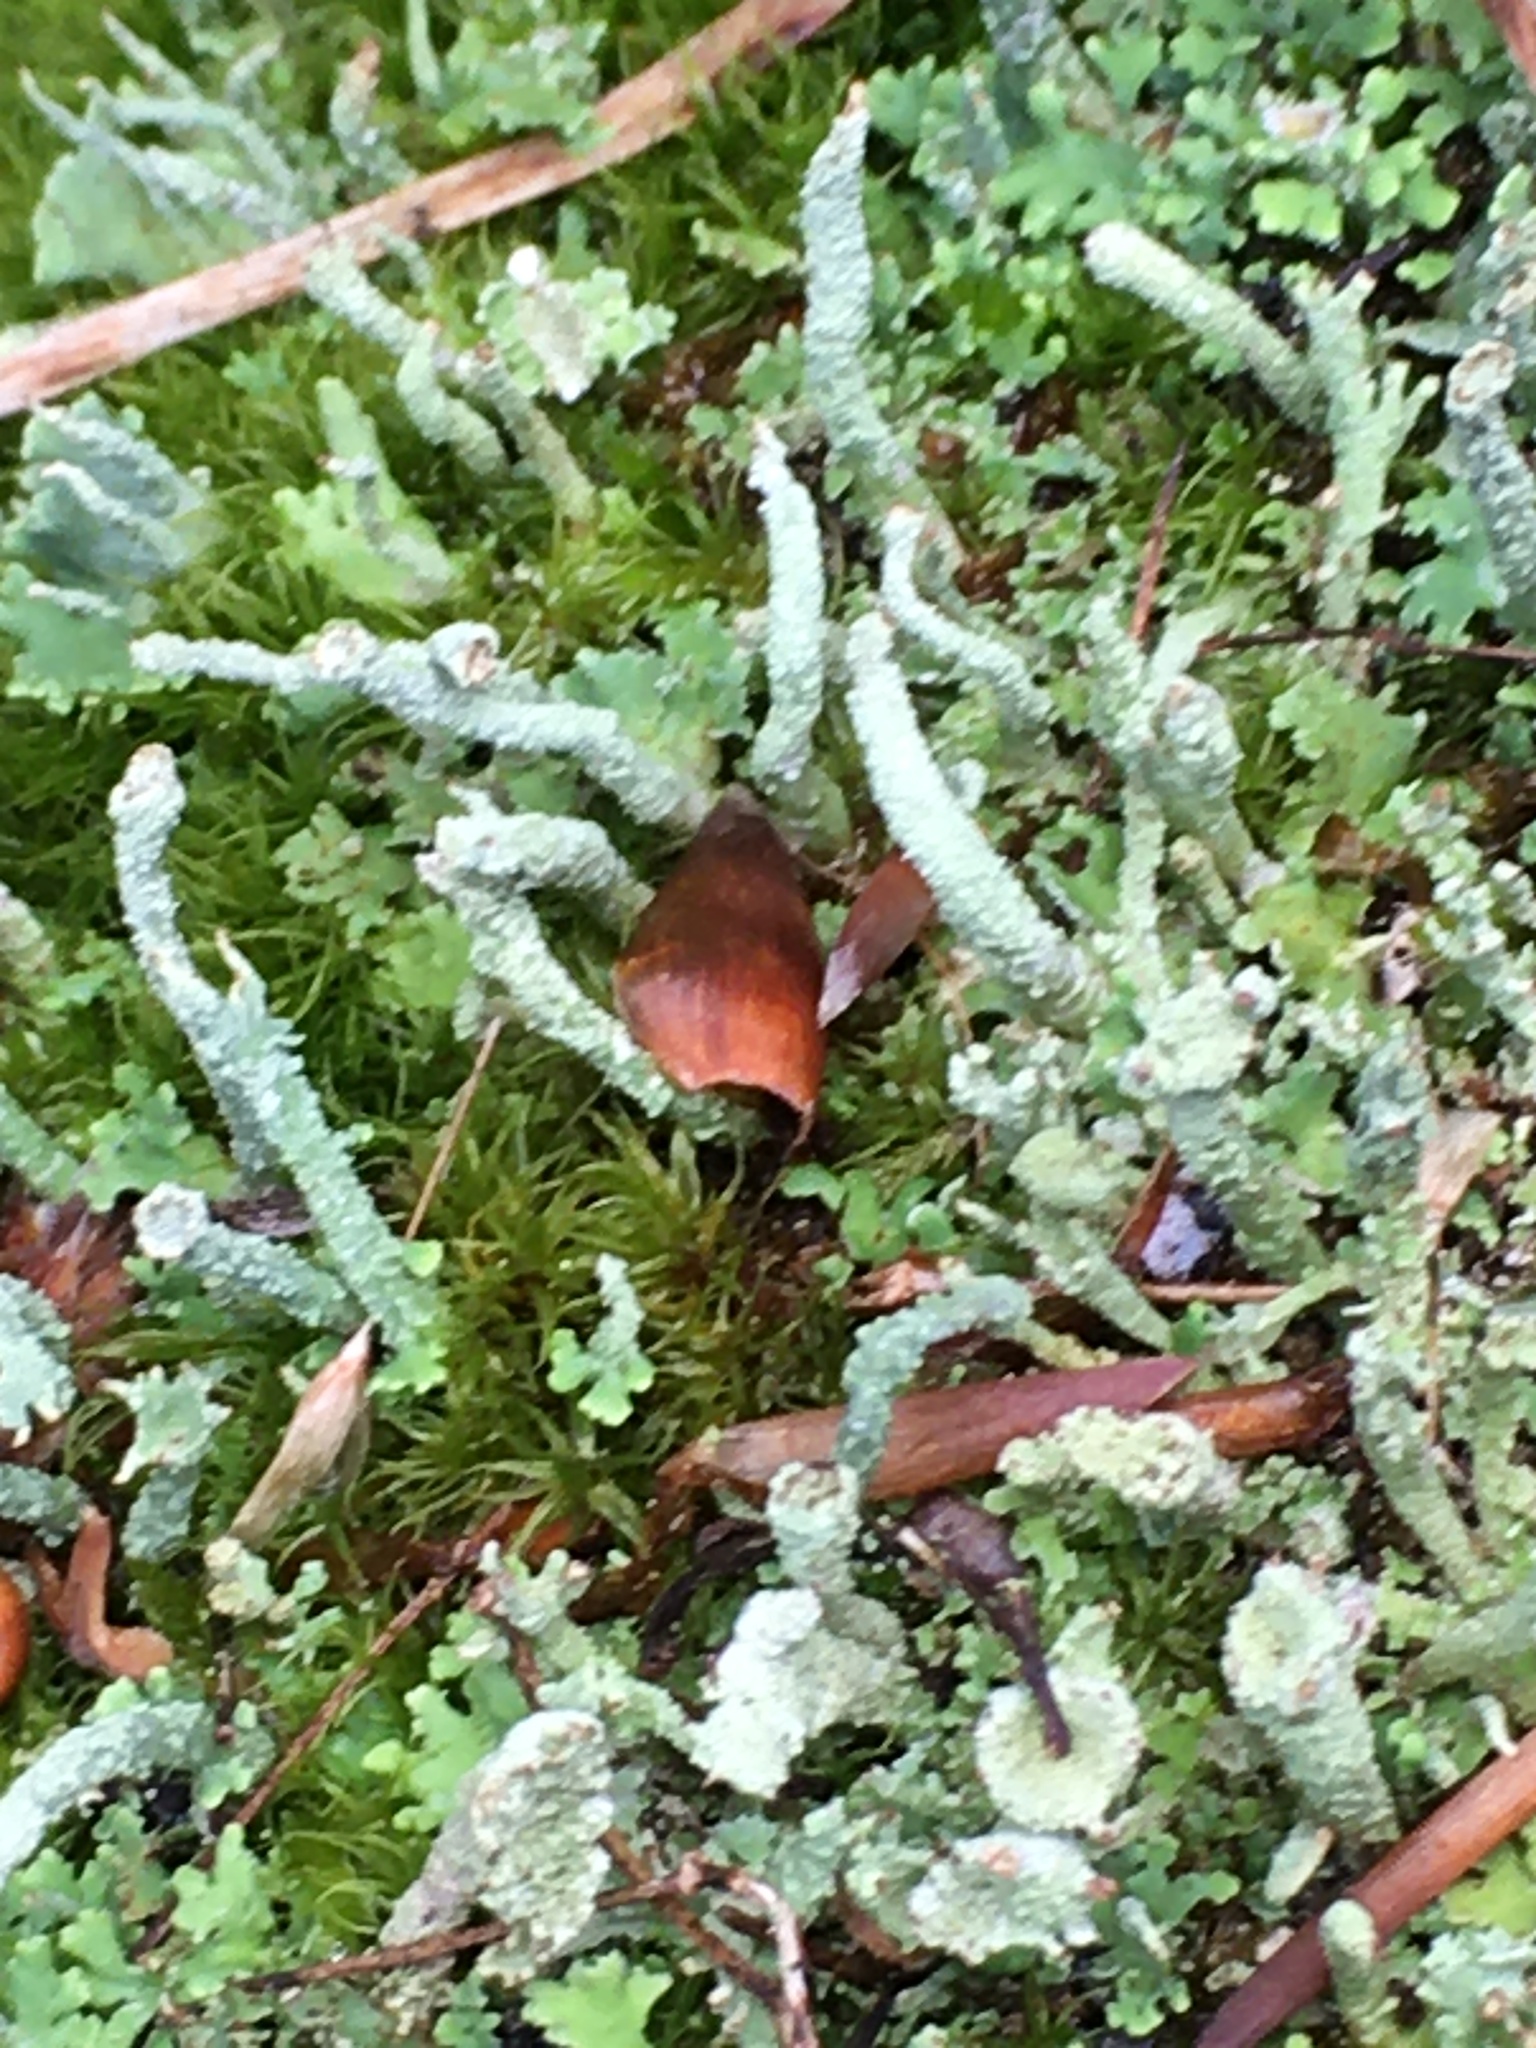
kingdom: Fungi
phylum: Ascomycota
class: Lecanoromycetes
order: Lecanorales
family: Cladoniaceae
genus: Cladonia
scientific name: Cladonia ochrochlora
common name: Smooth-footed powderhorn
